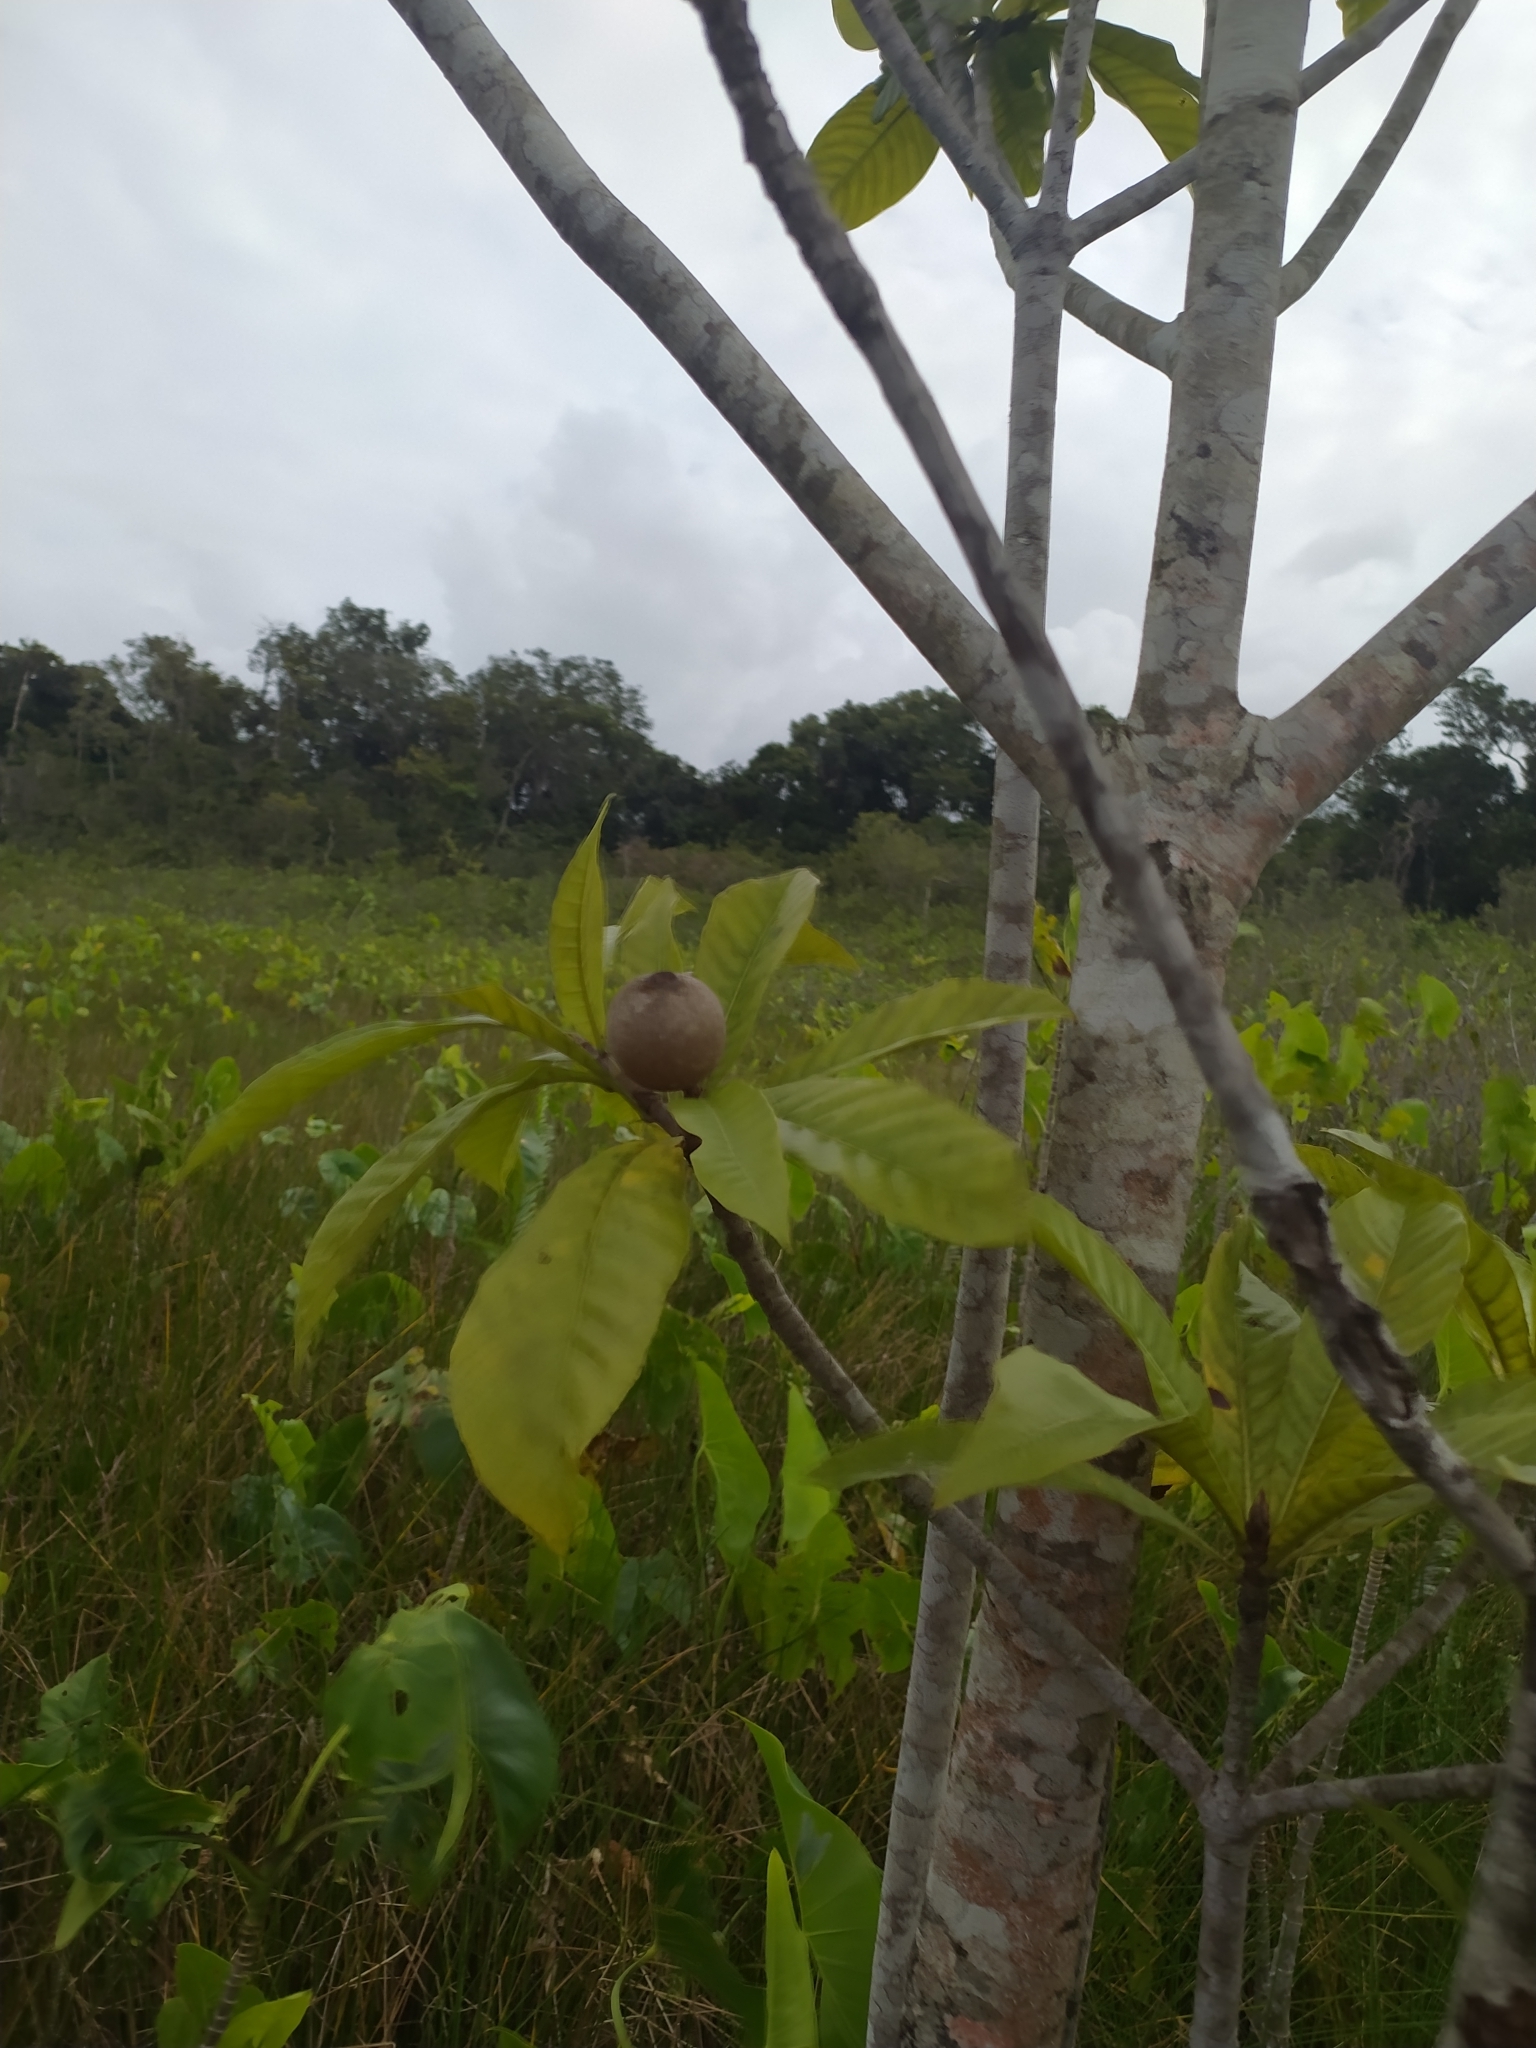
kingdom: Plantae
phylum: Tracheophyta
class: Magnoliopsida
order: Gentianales
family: Rubiaceae
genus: Genipa
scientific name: Genipa americana
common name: Genipap
